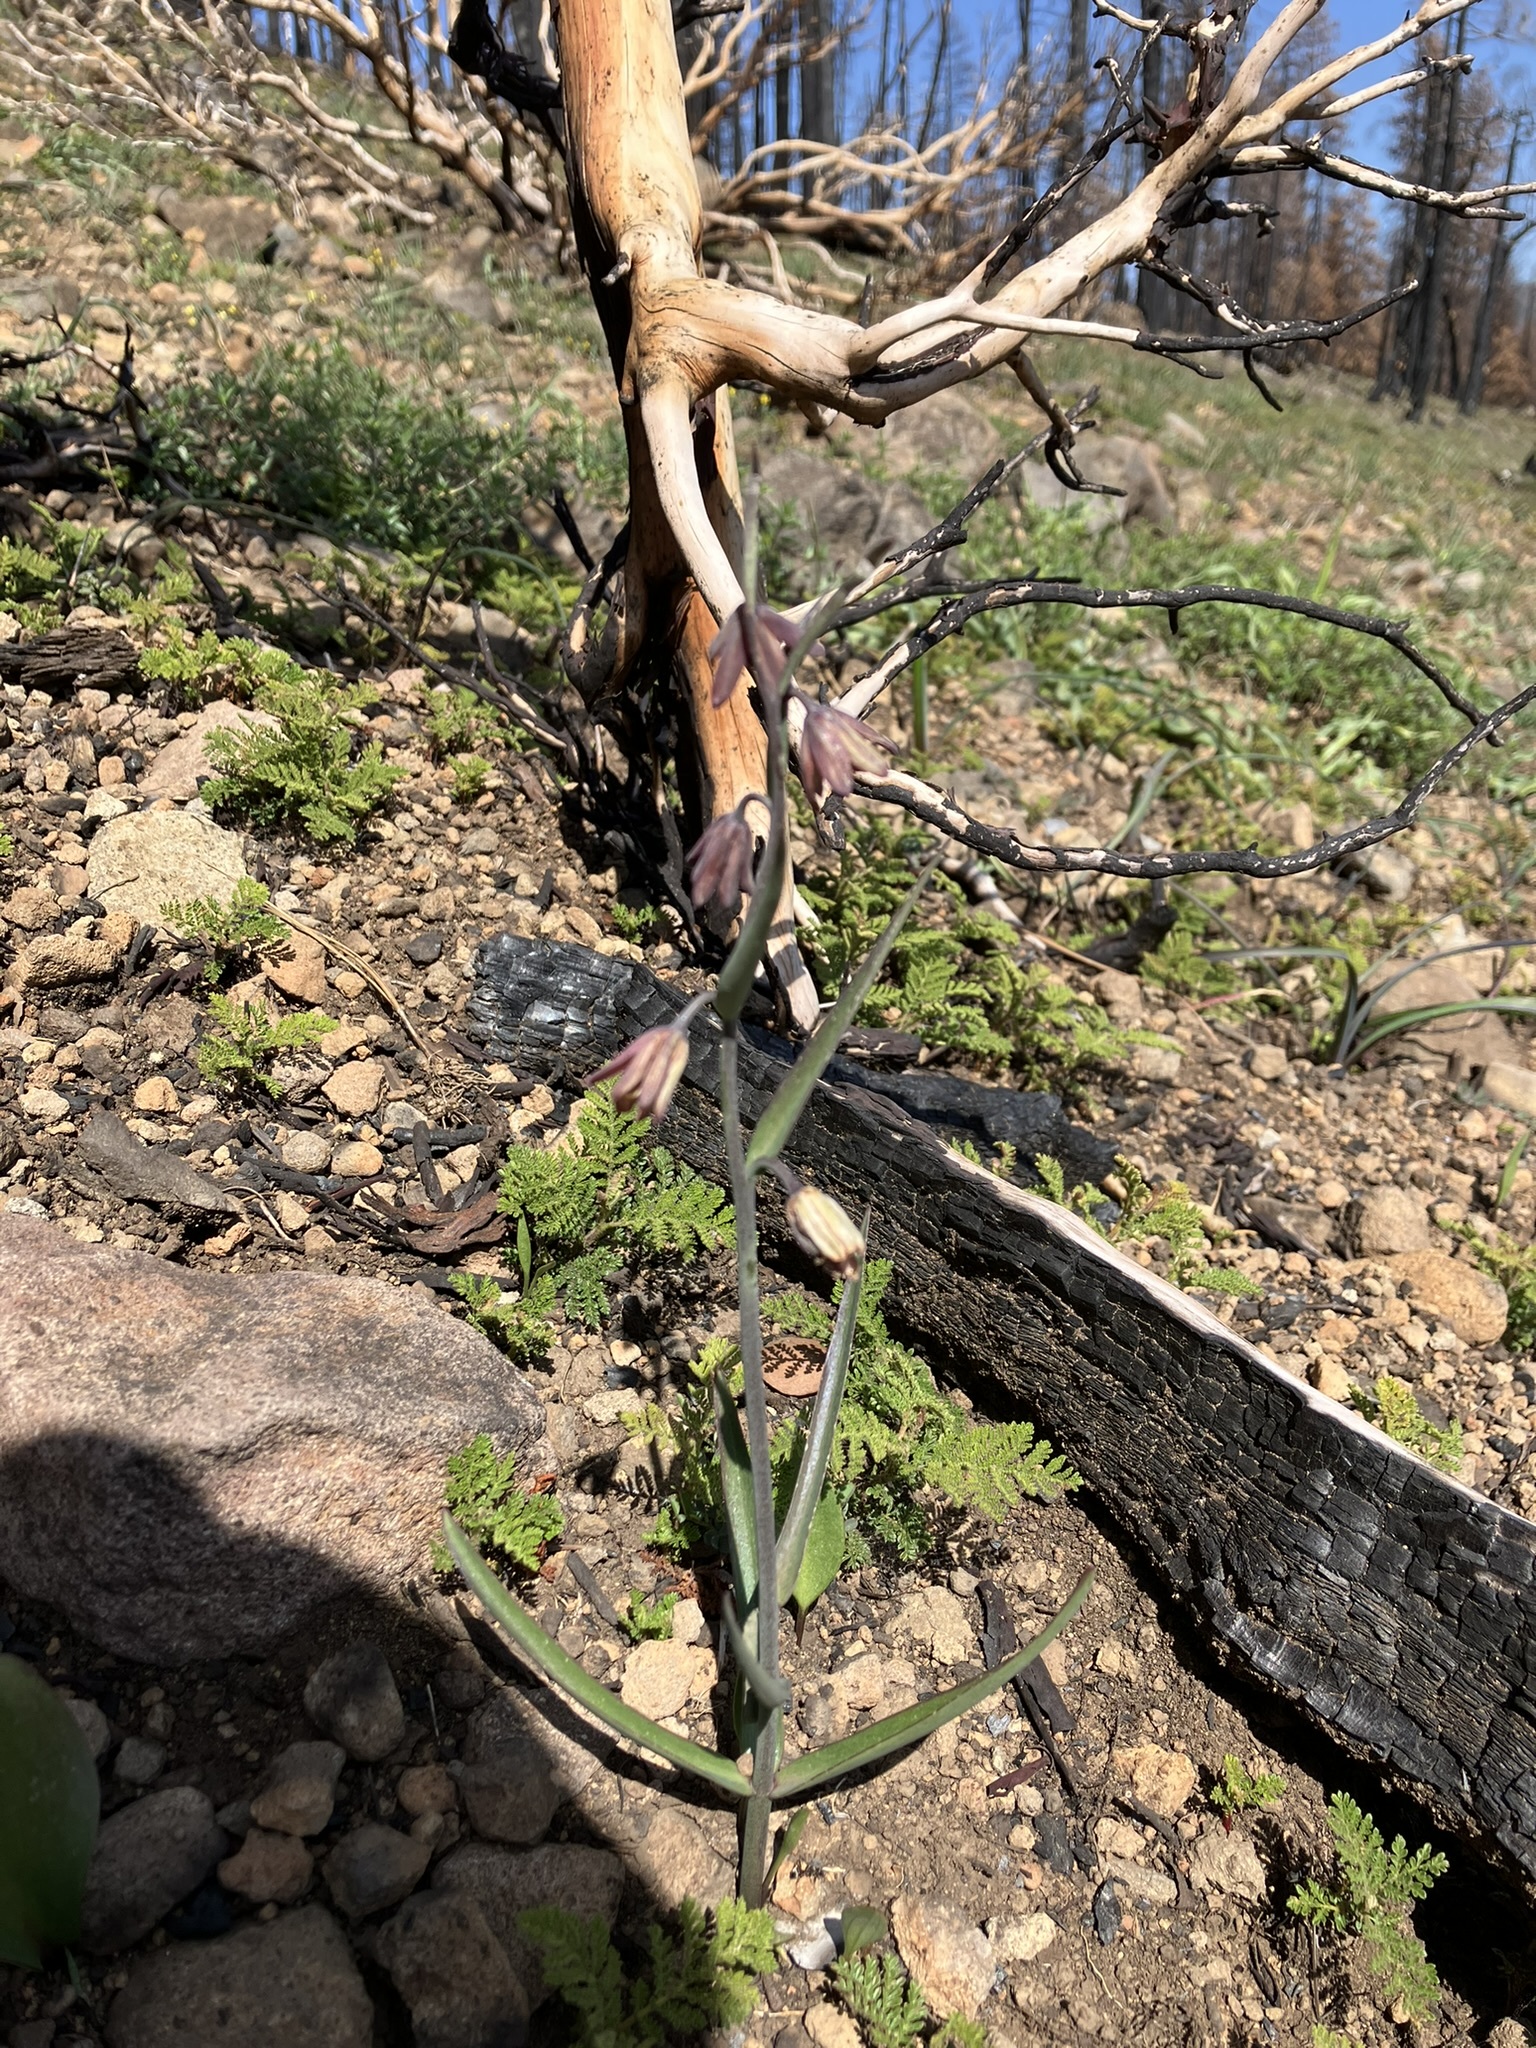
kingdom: Plantae
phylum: Tracheophyta
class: Liliopsida
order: Liliales
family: Liliaceae
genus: Fritillaria
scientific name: Fritillaria micrantha
